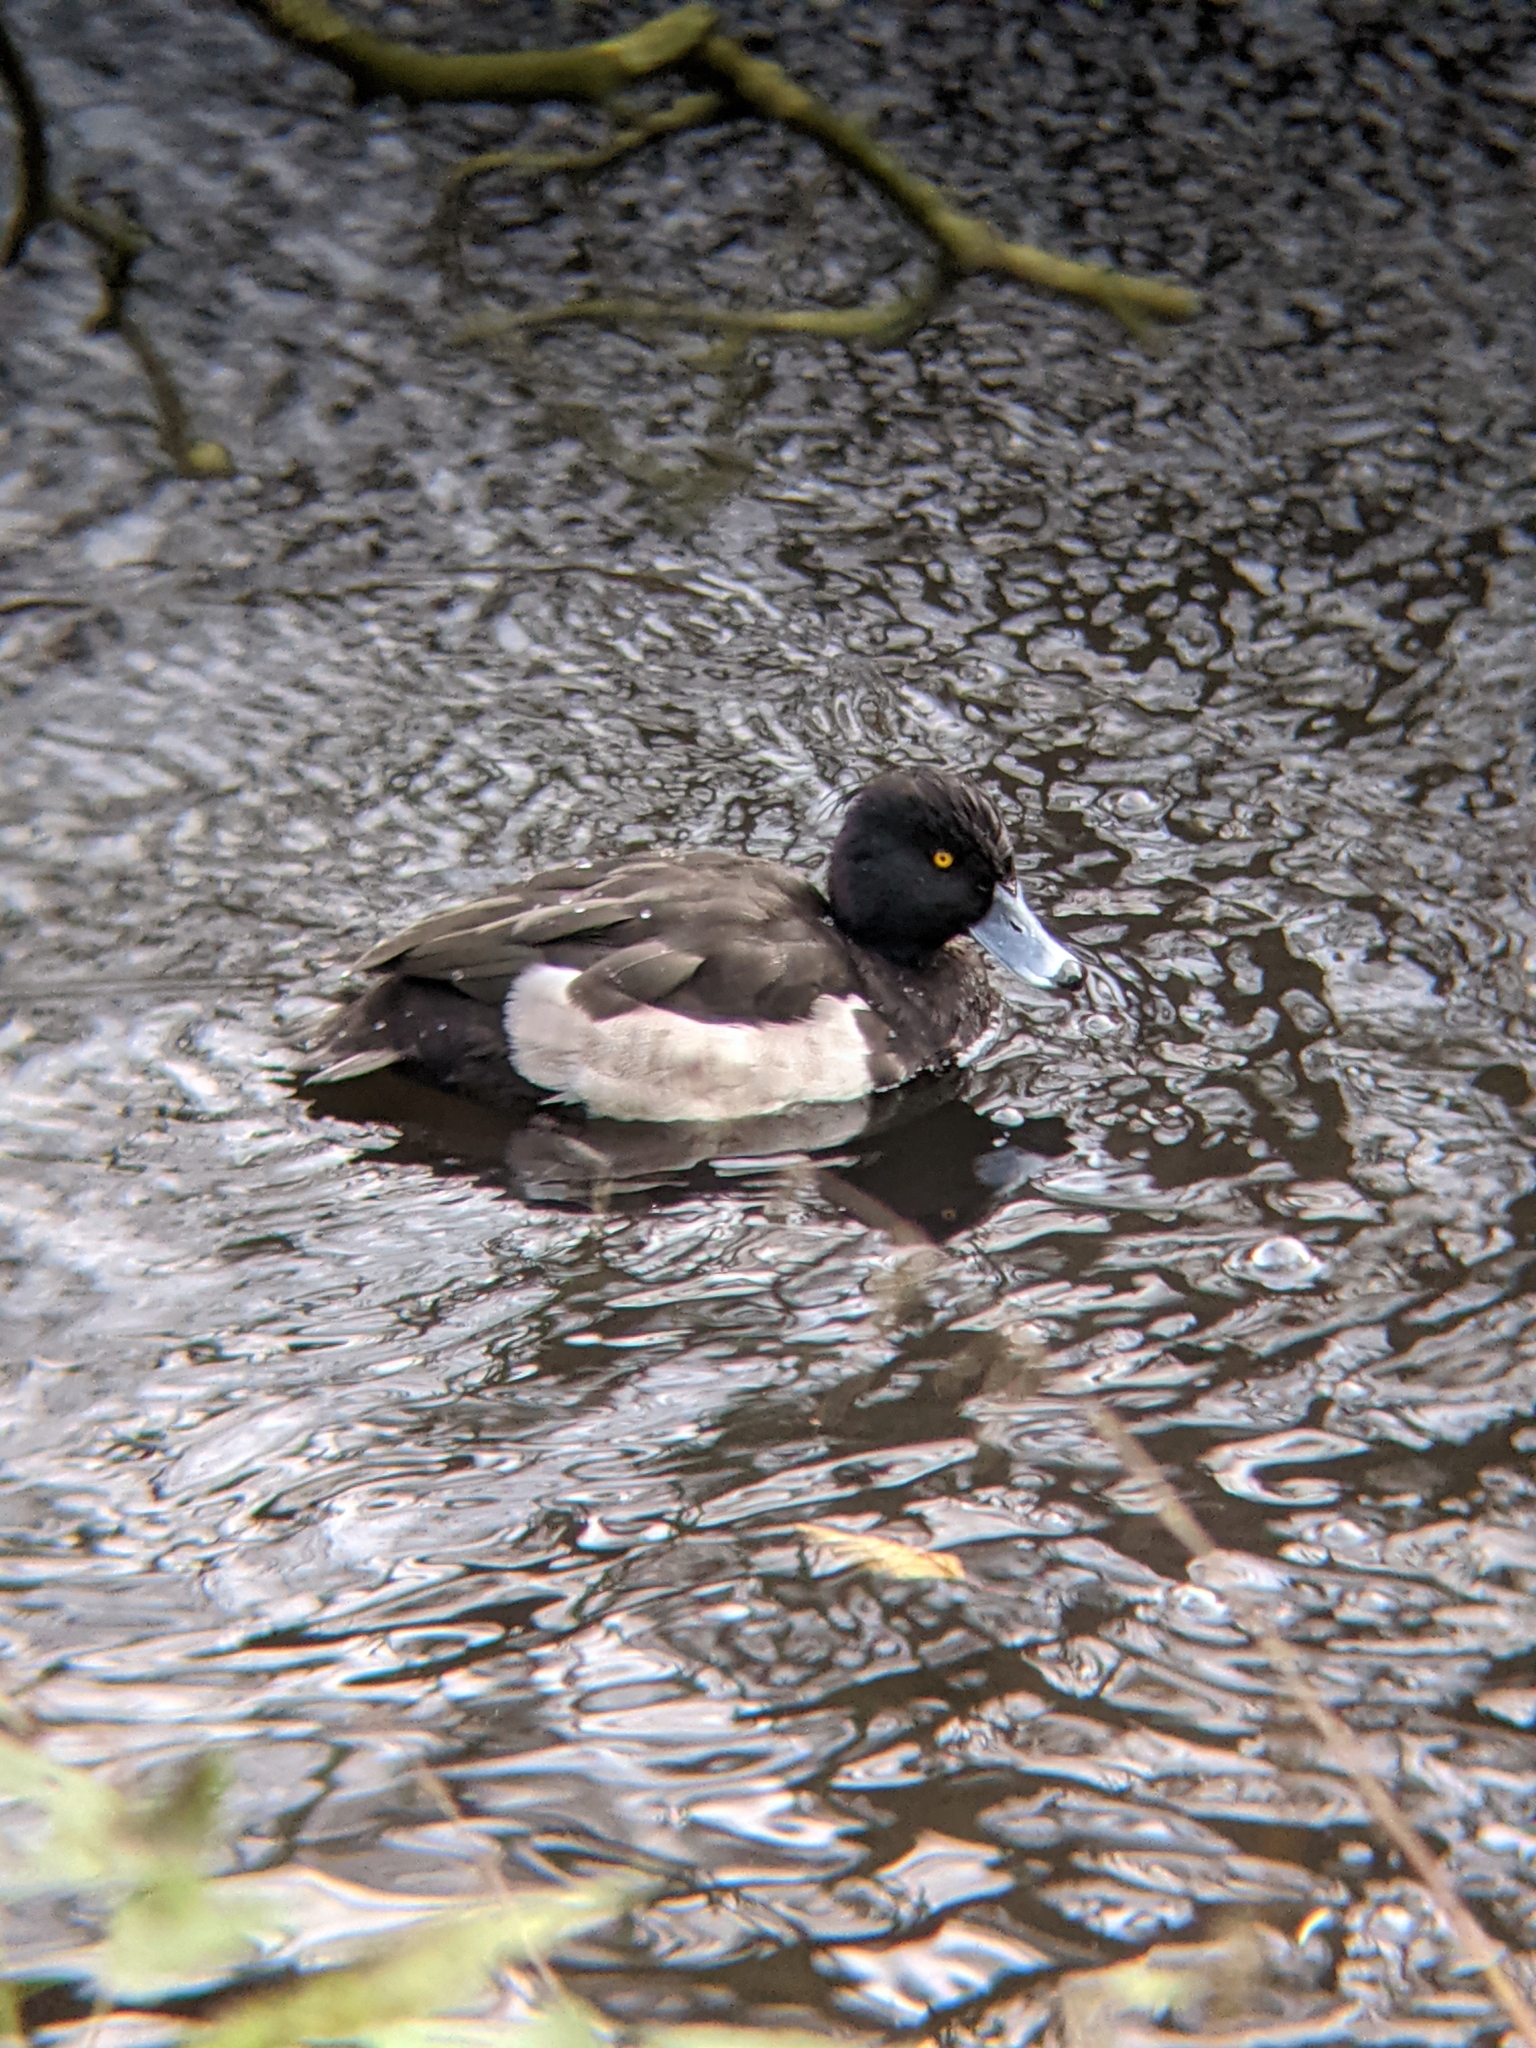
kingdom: Animalia
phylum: Chordata
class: Aves
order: Anseriformes
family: Anatidae
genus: Aythya
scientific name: Aythya fuligula
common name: Tufted duck
